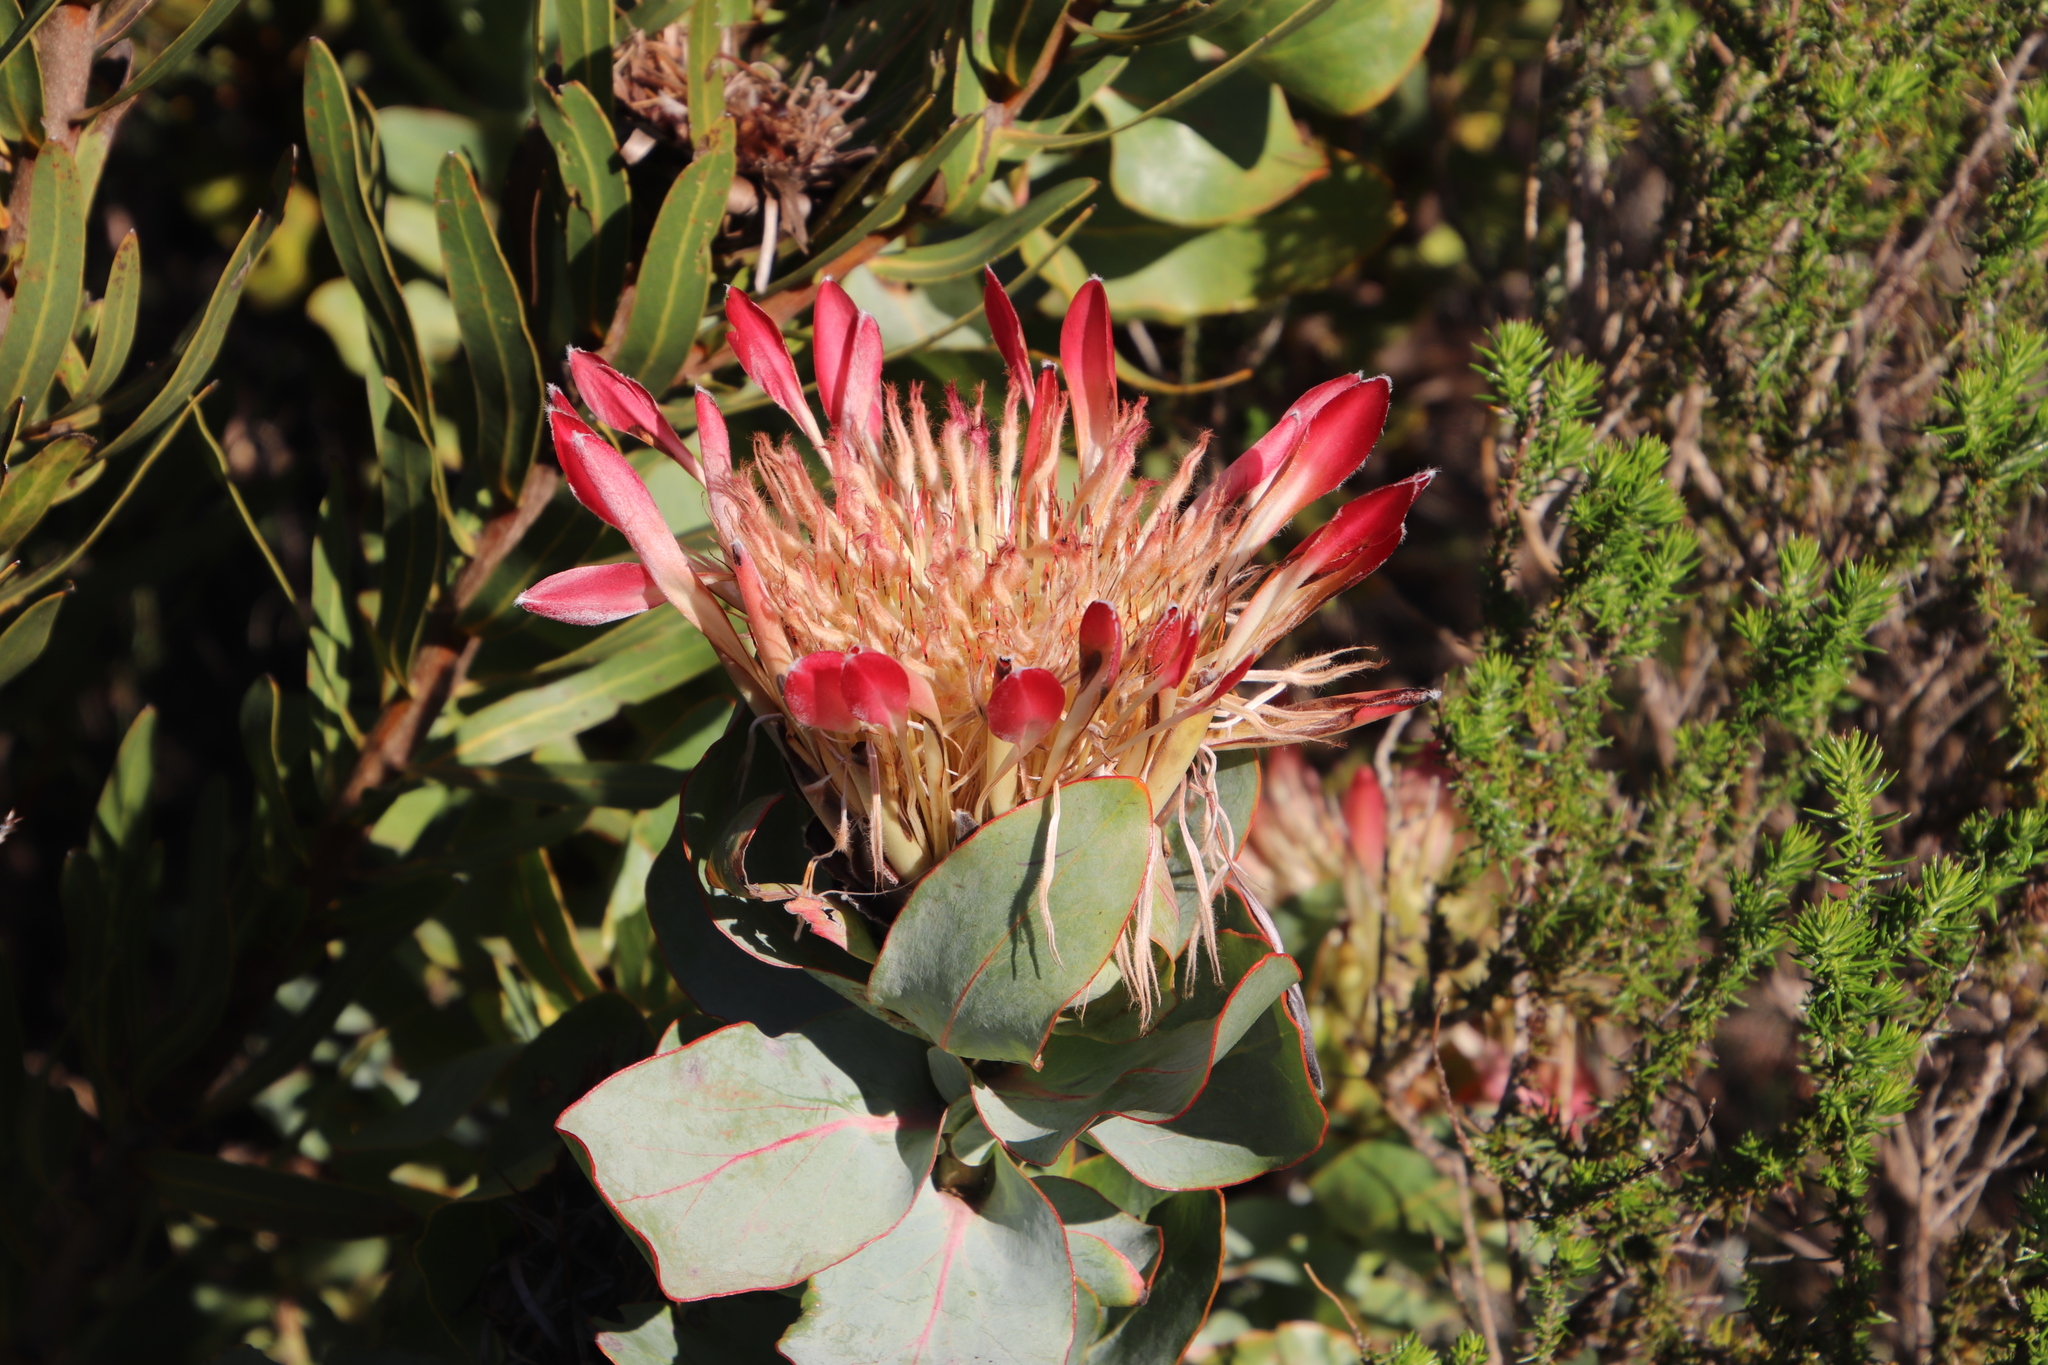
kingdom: Plantae
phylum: Tracheophyta
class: Magnoliopsida
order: Proteales
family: Proteaceae
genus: Protea
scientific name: Protea eximia
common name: Broad-leaved sugarbush
